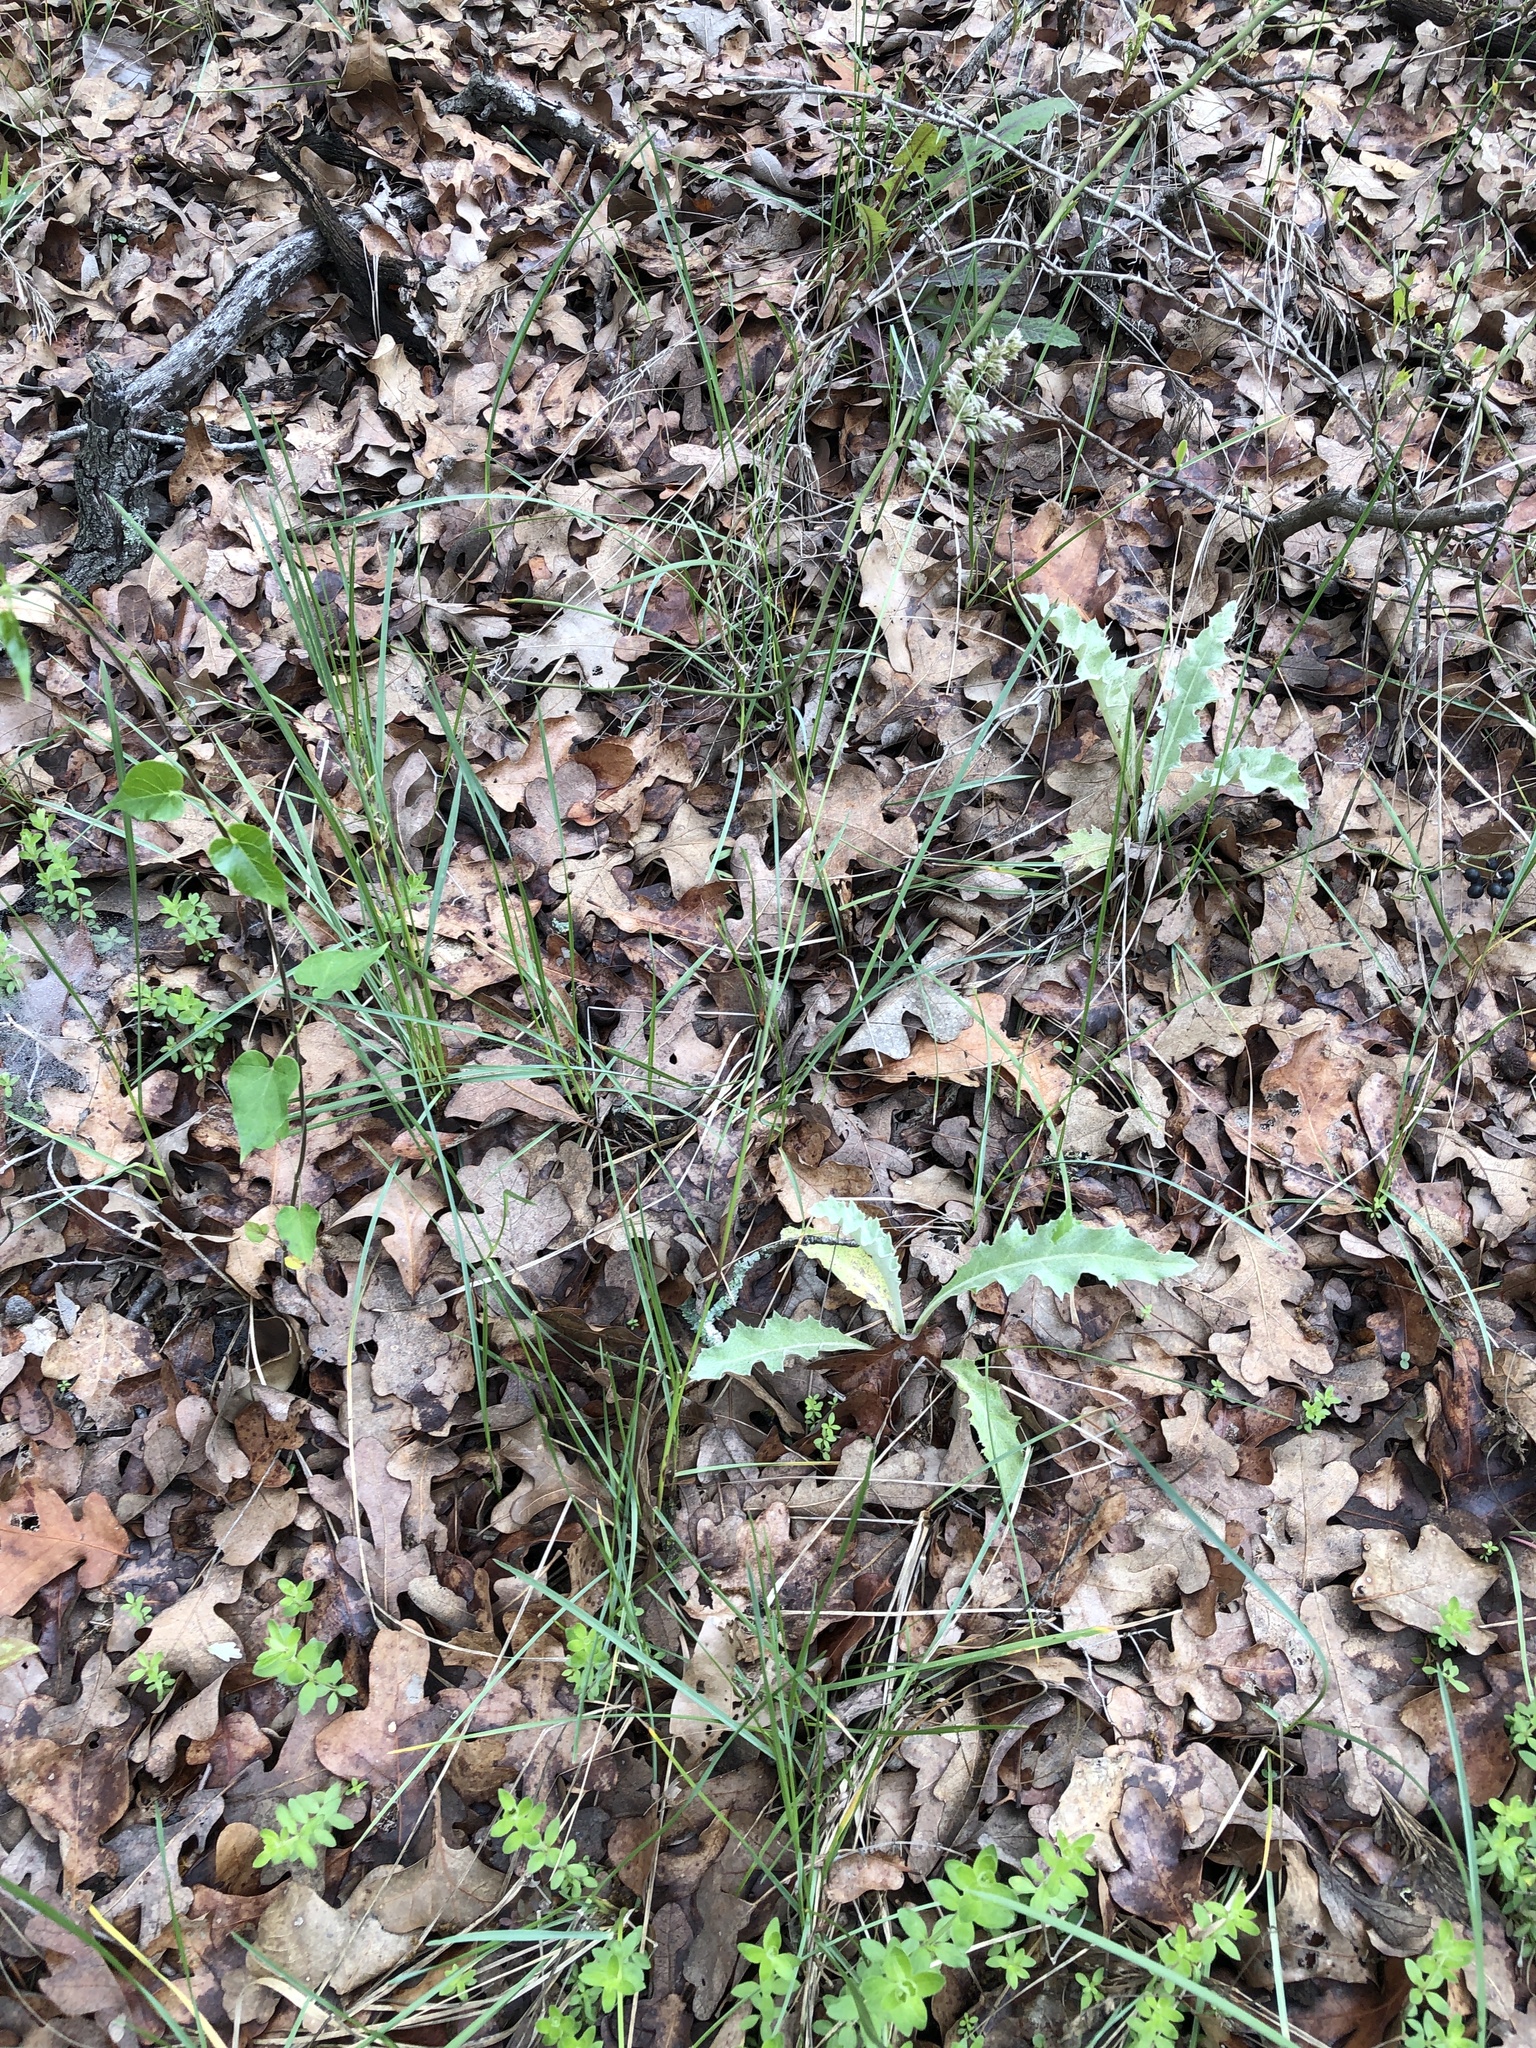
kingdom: Plantae
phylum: Tracheophyta
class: Liliopsida
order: Poales
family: Poaceae
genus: Poa
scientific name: Poa arachnifera
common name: Texas bluegrass
